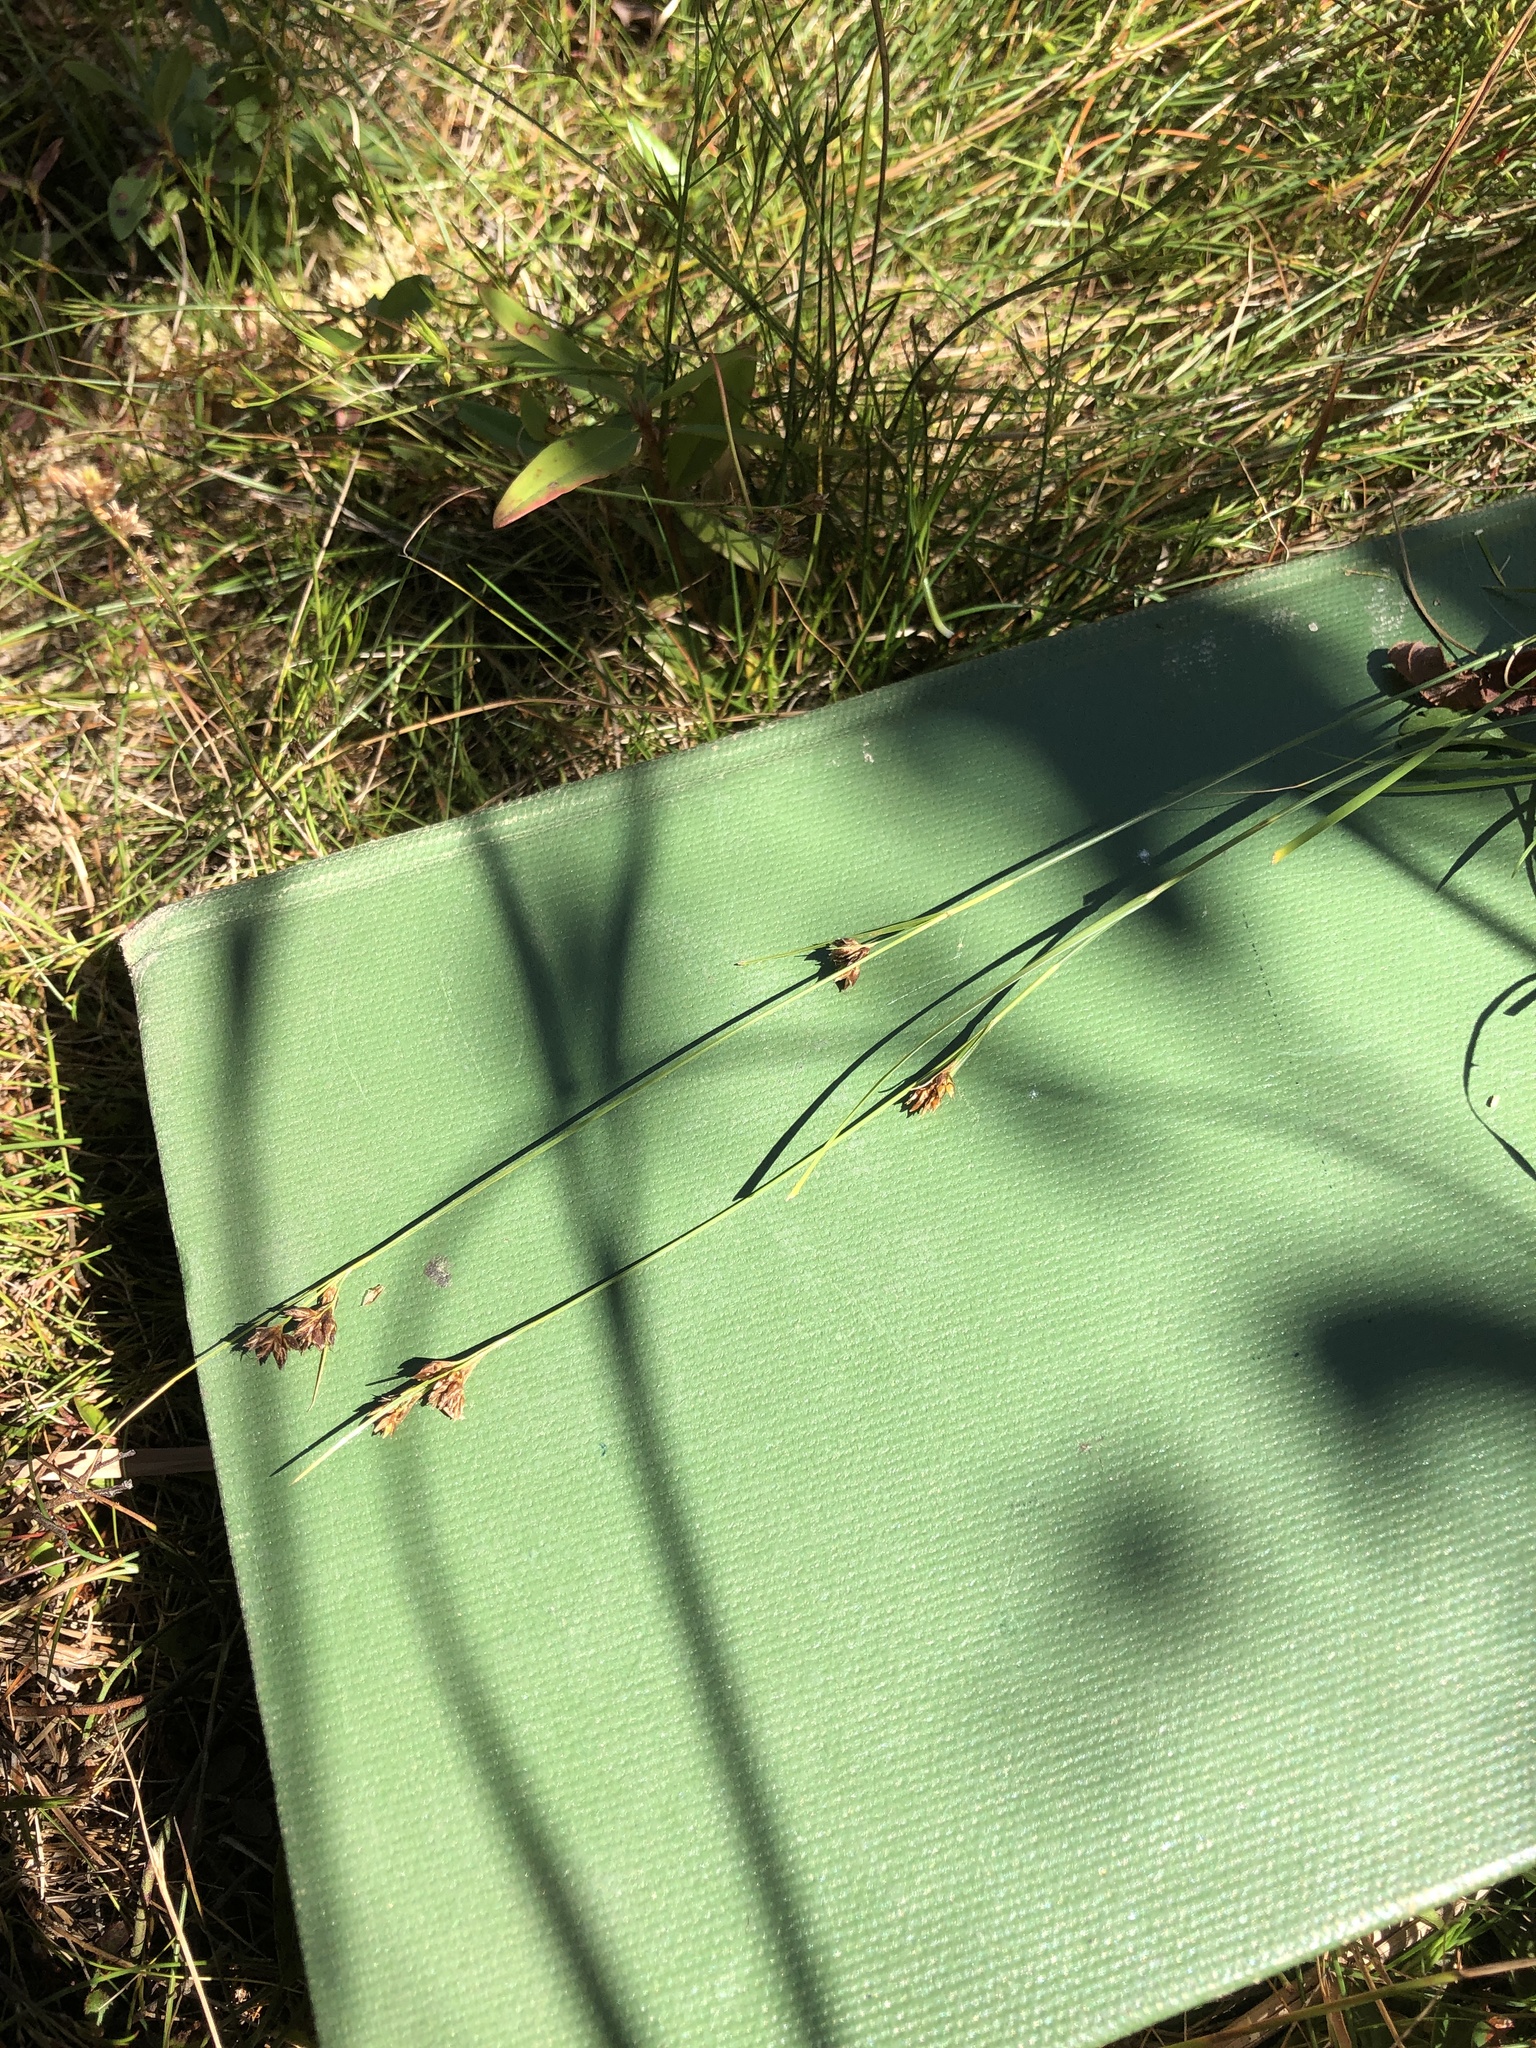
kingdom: Plantae
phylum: Tracheophyta
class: Liliopsida
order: Poales
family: Cyperaceae
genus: Rhynchospora
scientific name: Rhynchospora capitellata
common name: Brownish beaksedge
